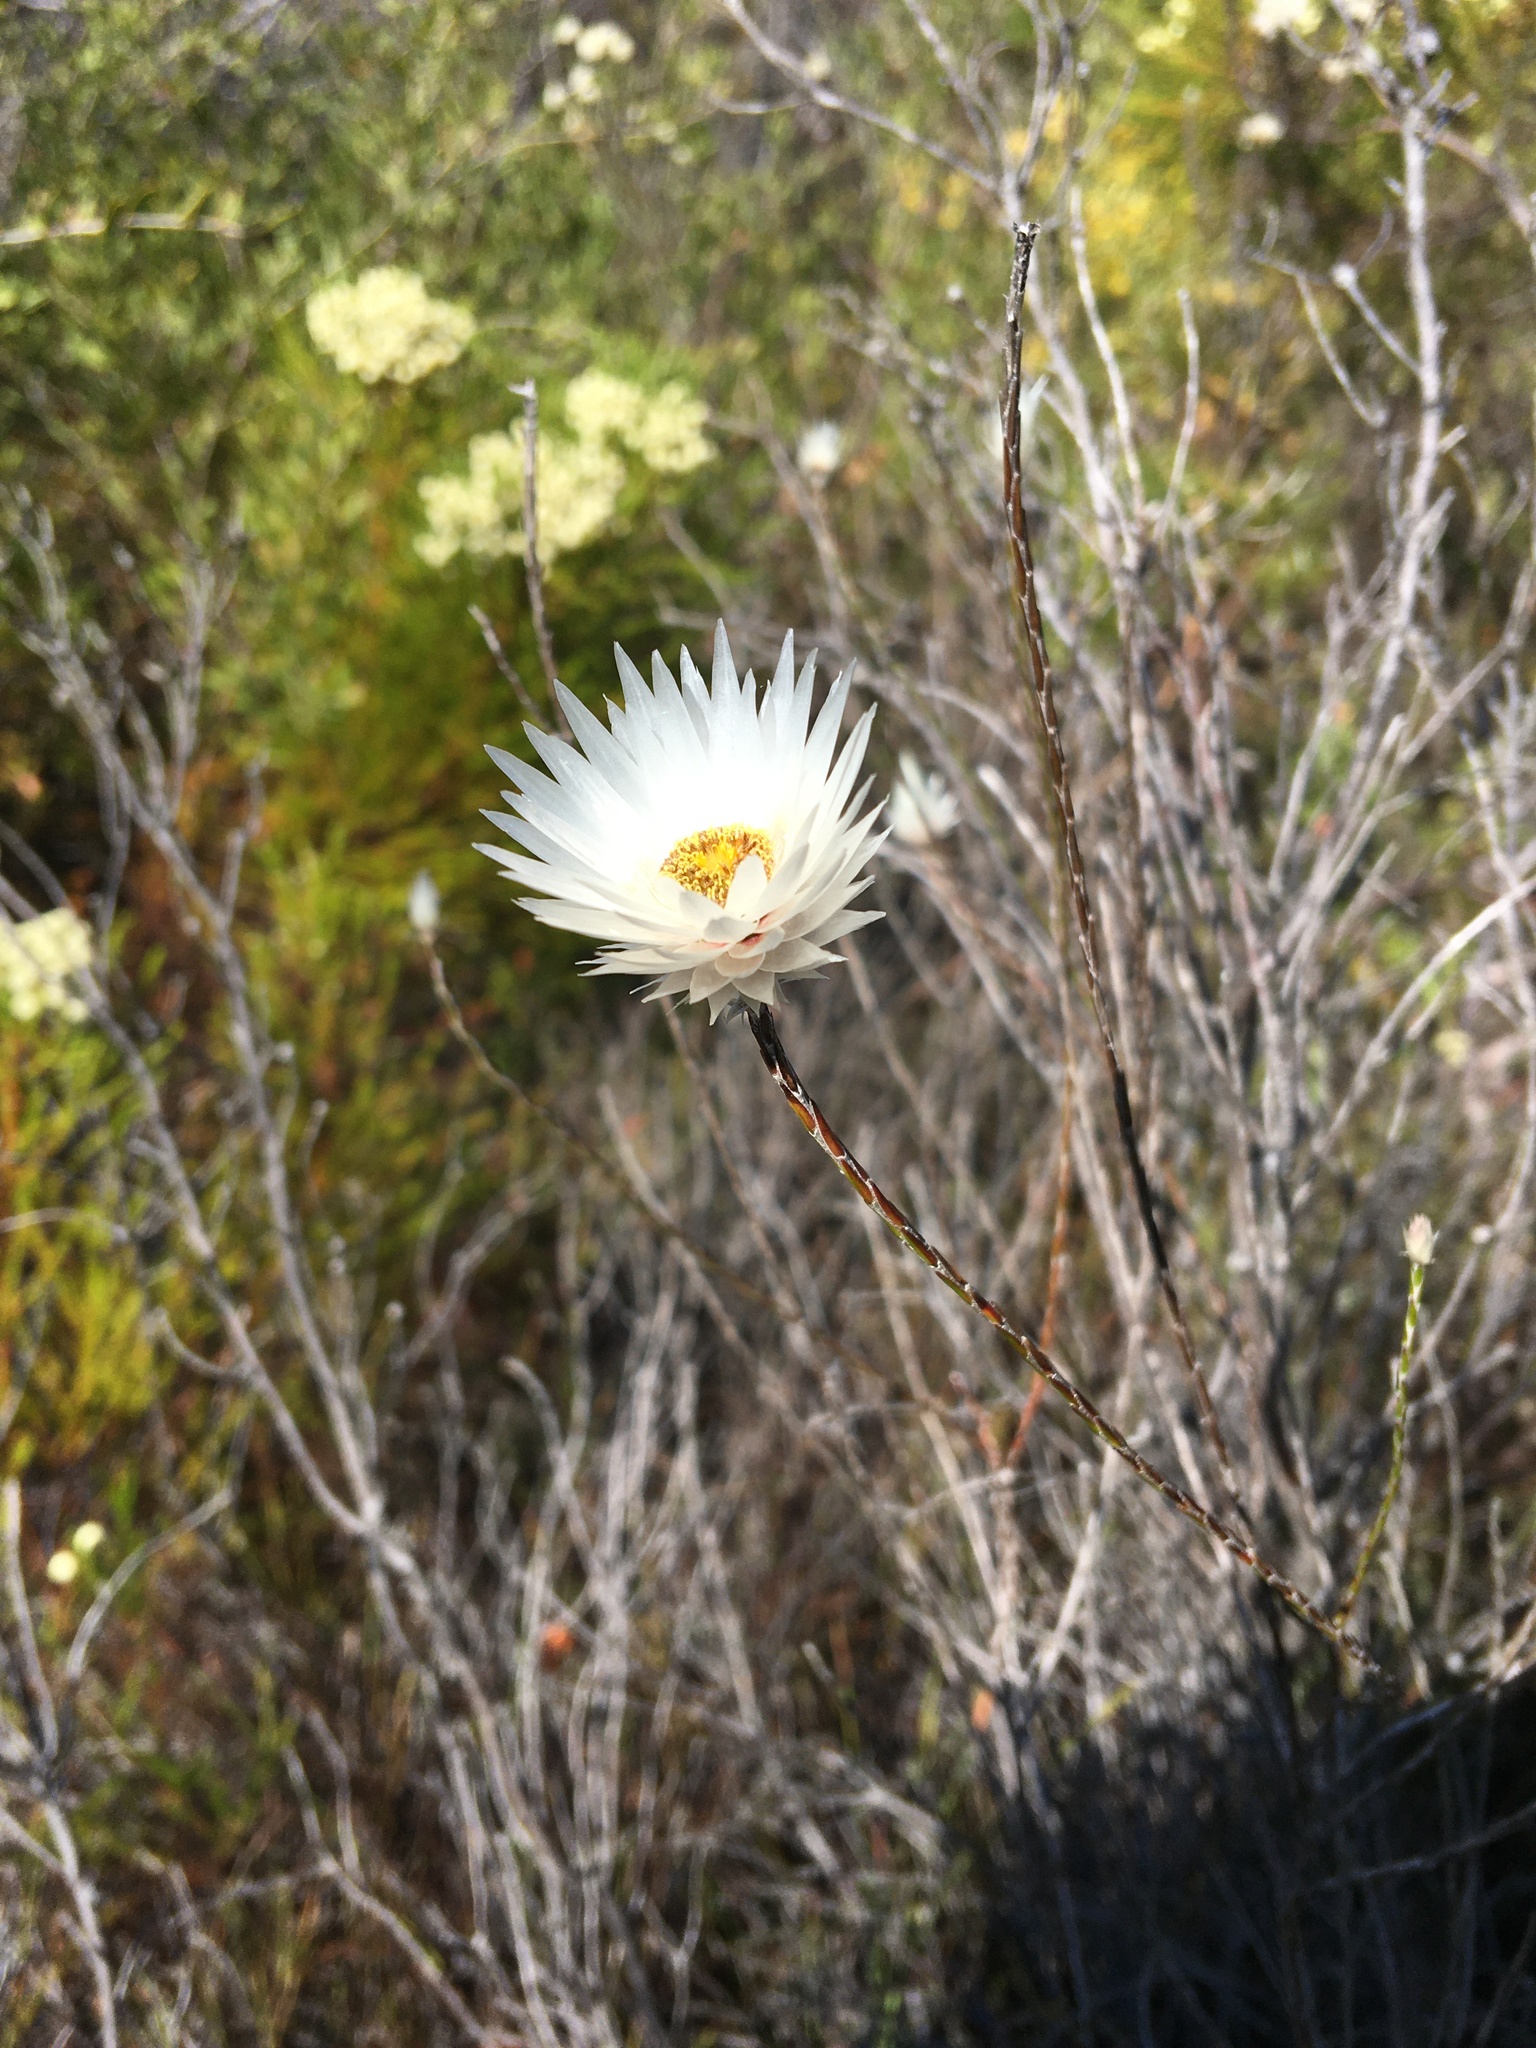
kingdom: Plantae
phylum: Tracheophyta
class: Magnoliopsida
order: Asterales
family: Asteraceae
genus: Edmondia
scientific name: Edmondia sesamoides
